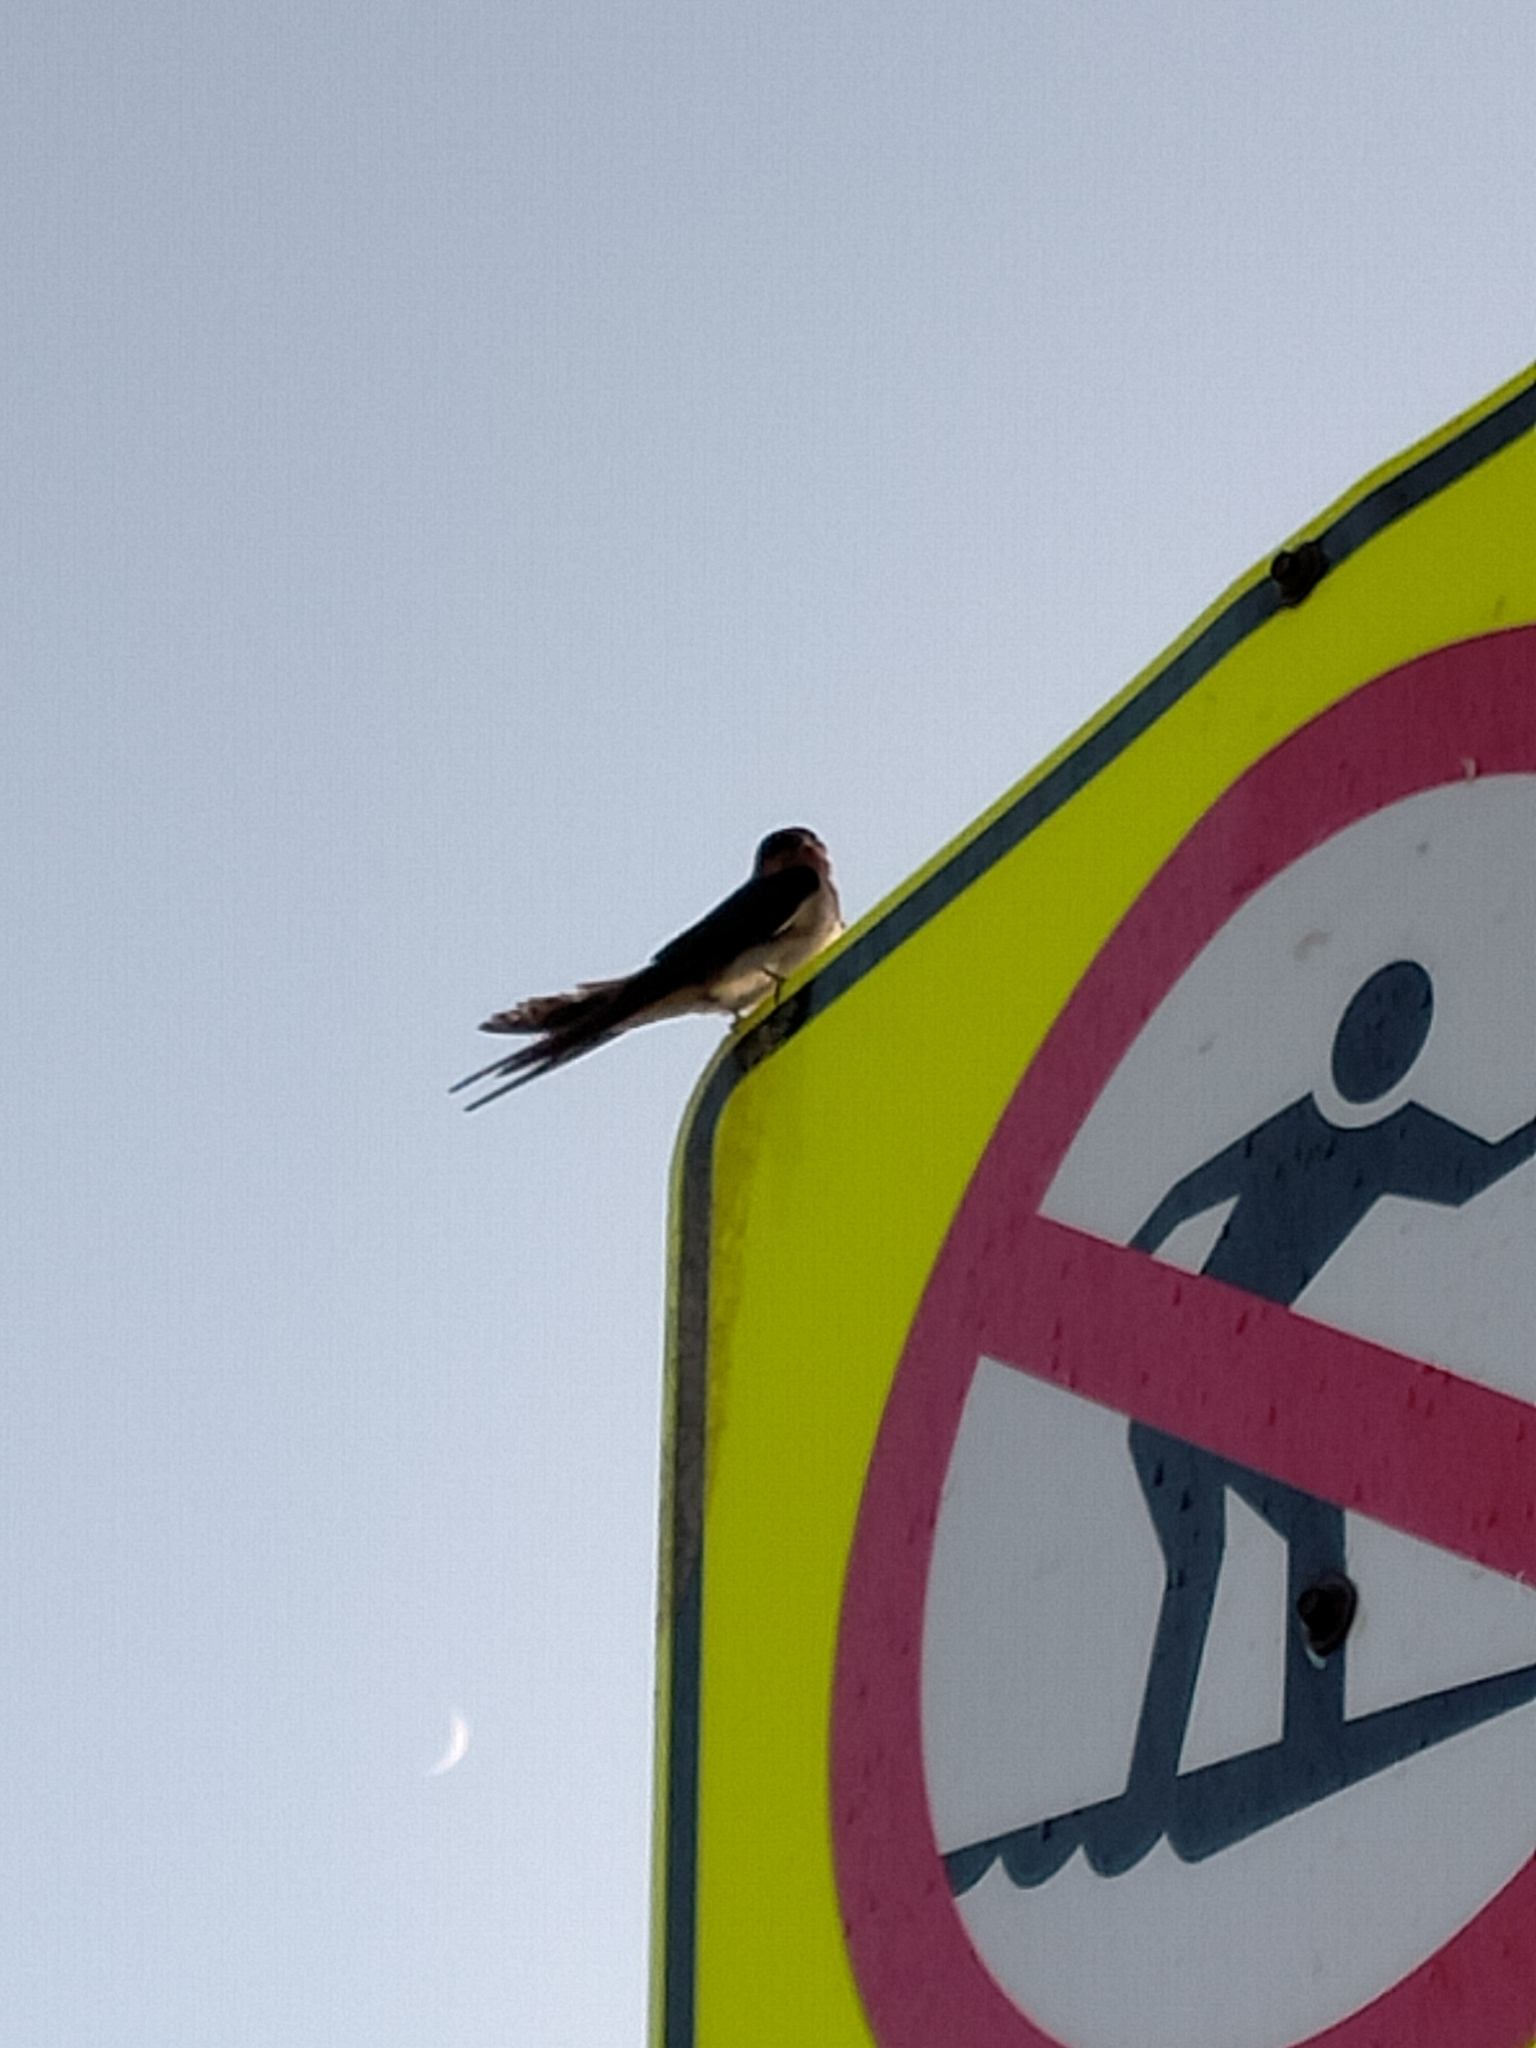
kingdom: Animalia
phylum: Chordata
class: Aves
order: Passeriformes
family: Hirundinidae
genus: Hirundo
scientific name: Hirundo neoxena
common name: Welcome swallow
